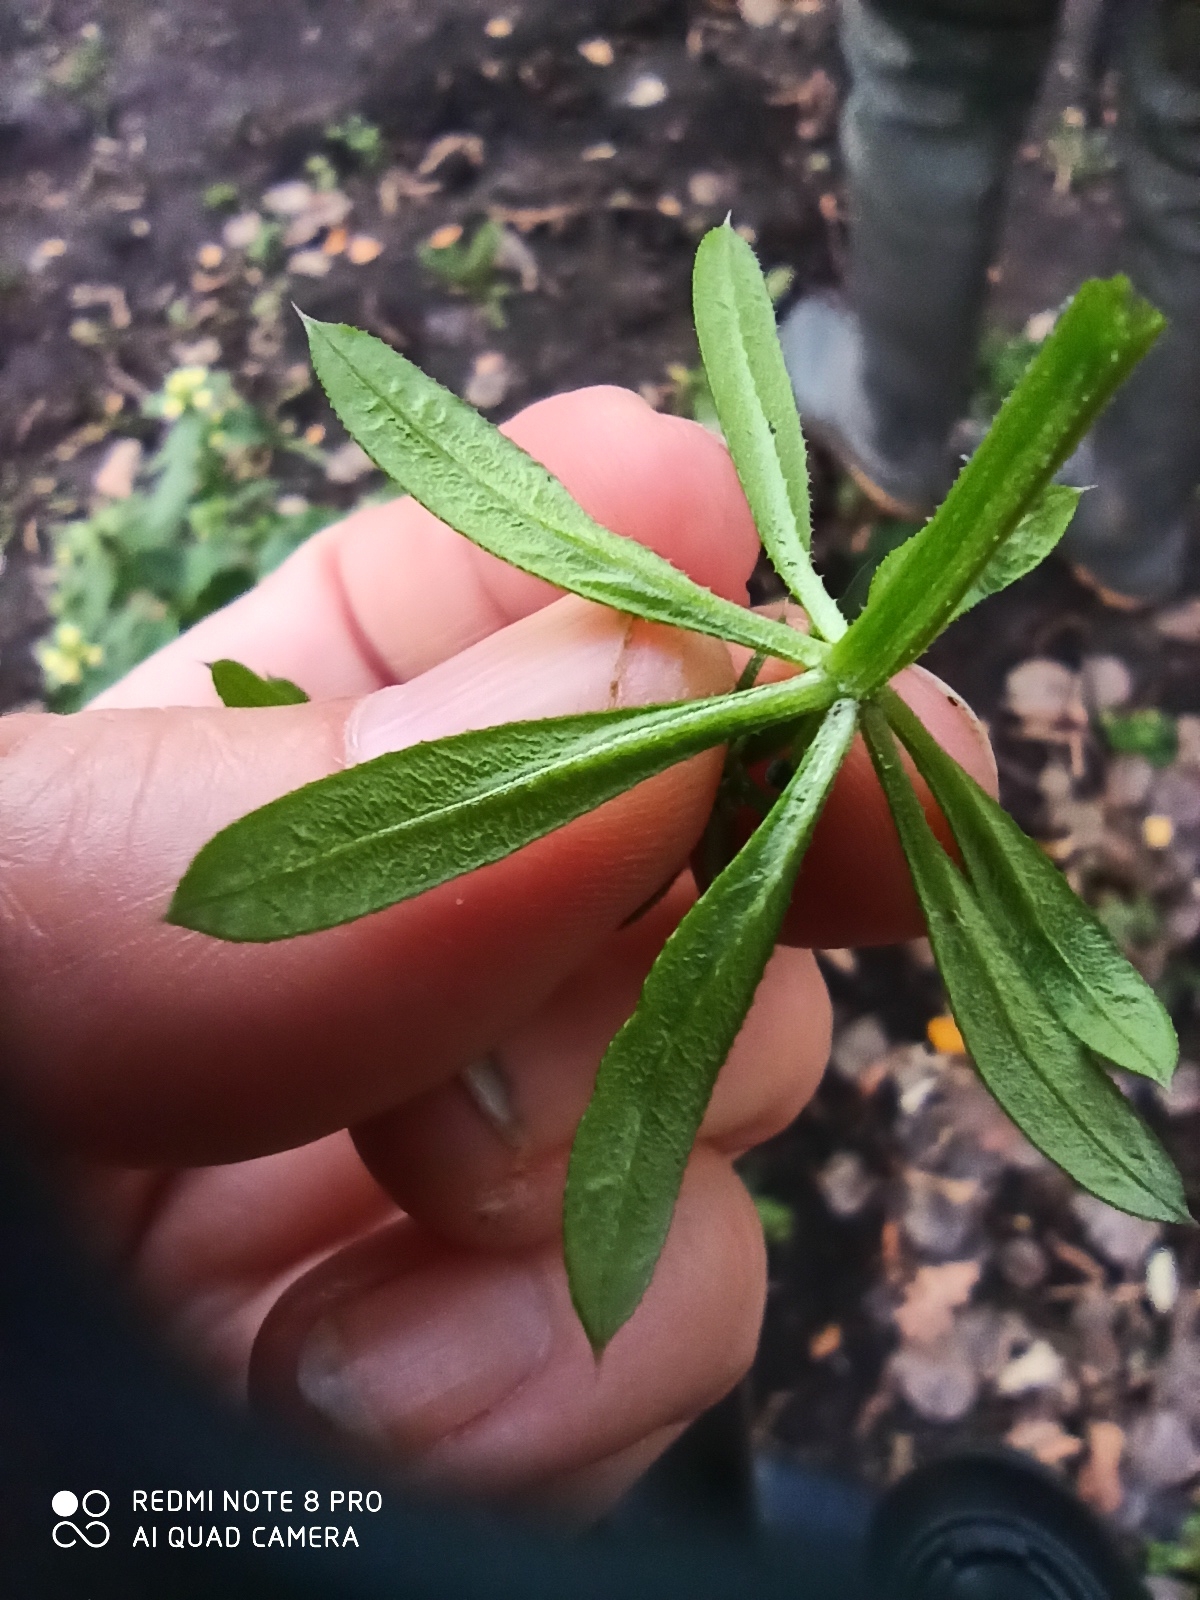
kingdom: Plantae
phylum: Tracheophyta
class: Magnoliopsida
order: Gentianales
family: Rubiaceae
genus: Galium
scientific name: Galium aparine
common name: Cleavers
